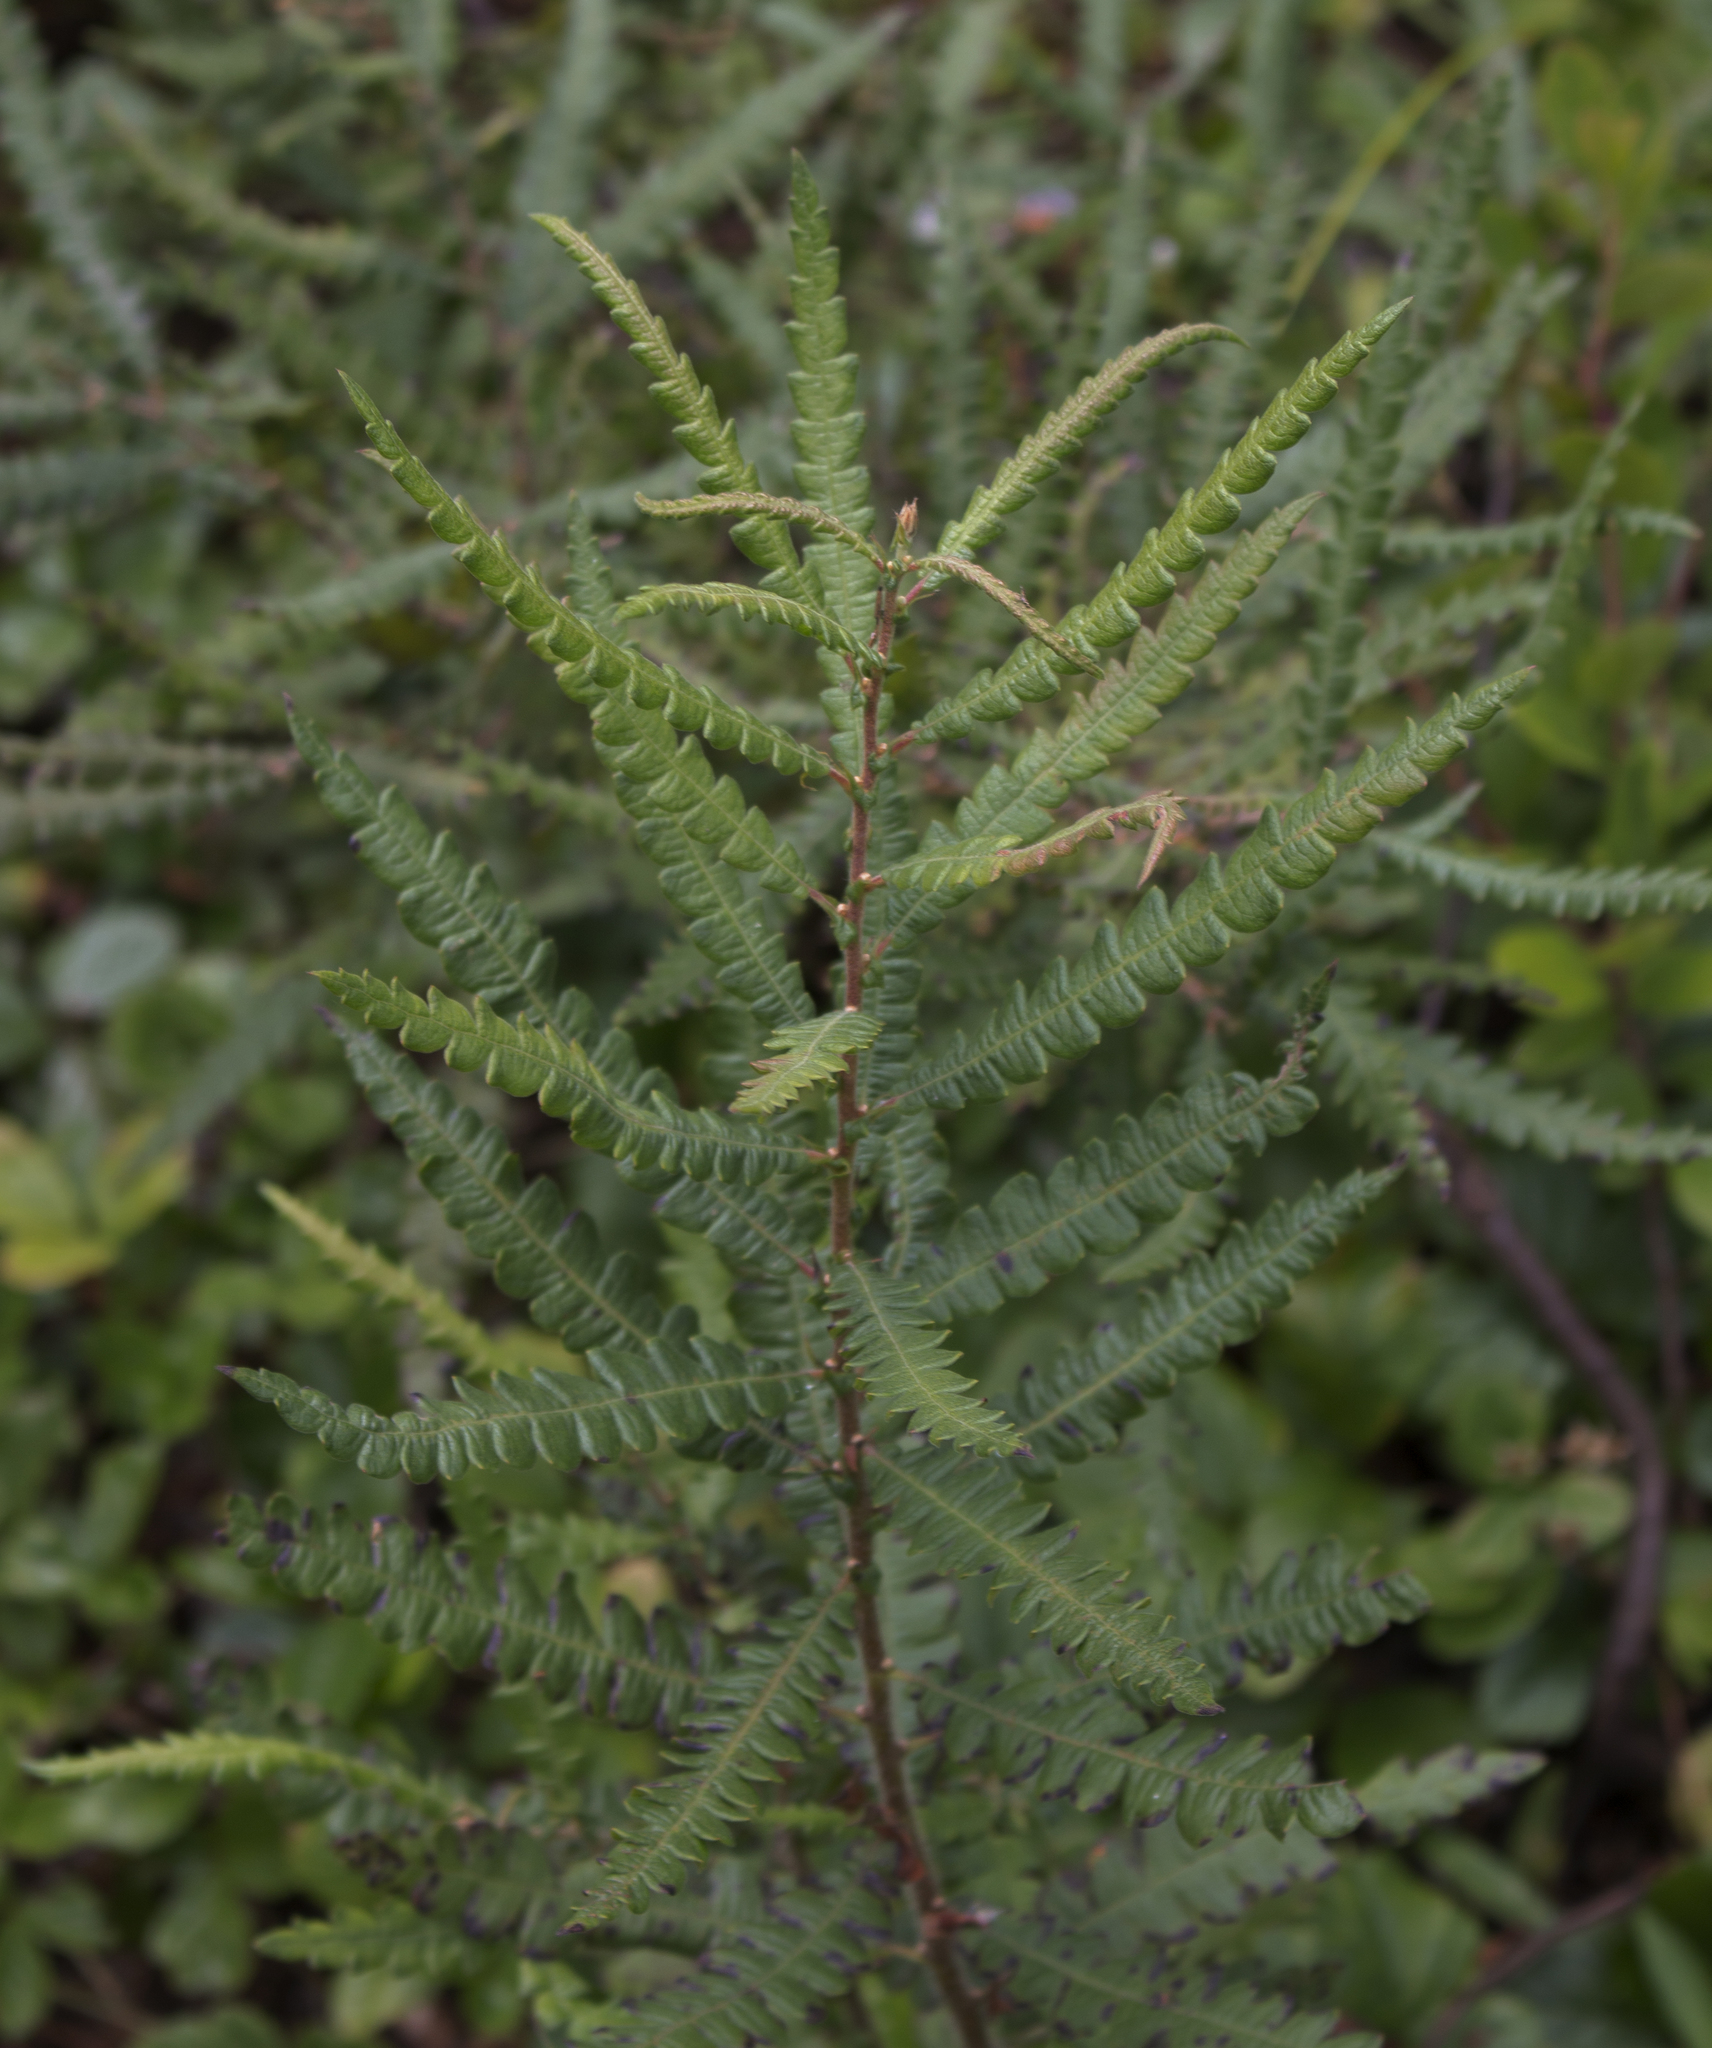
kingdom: Plantae
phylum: Tracheophyta
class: Magnoliopsida
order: Fagales
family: Myricaceae
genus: Comptonia
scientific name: Comptonia peregrina
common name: Sweet-fern
